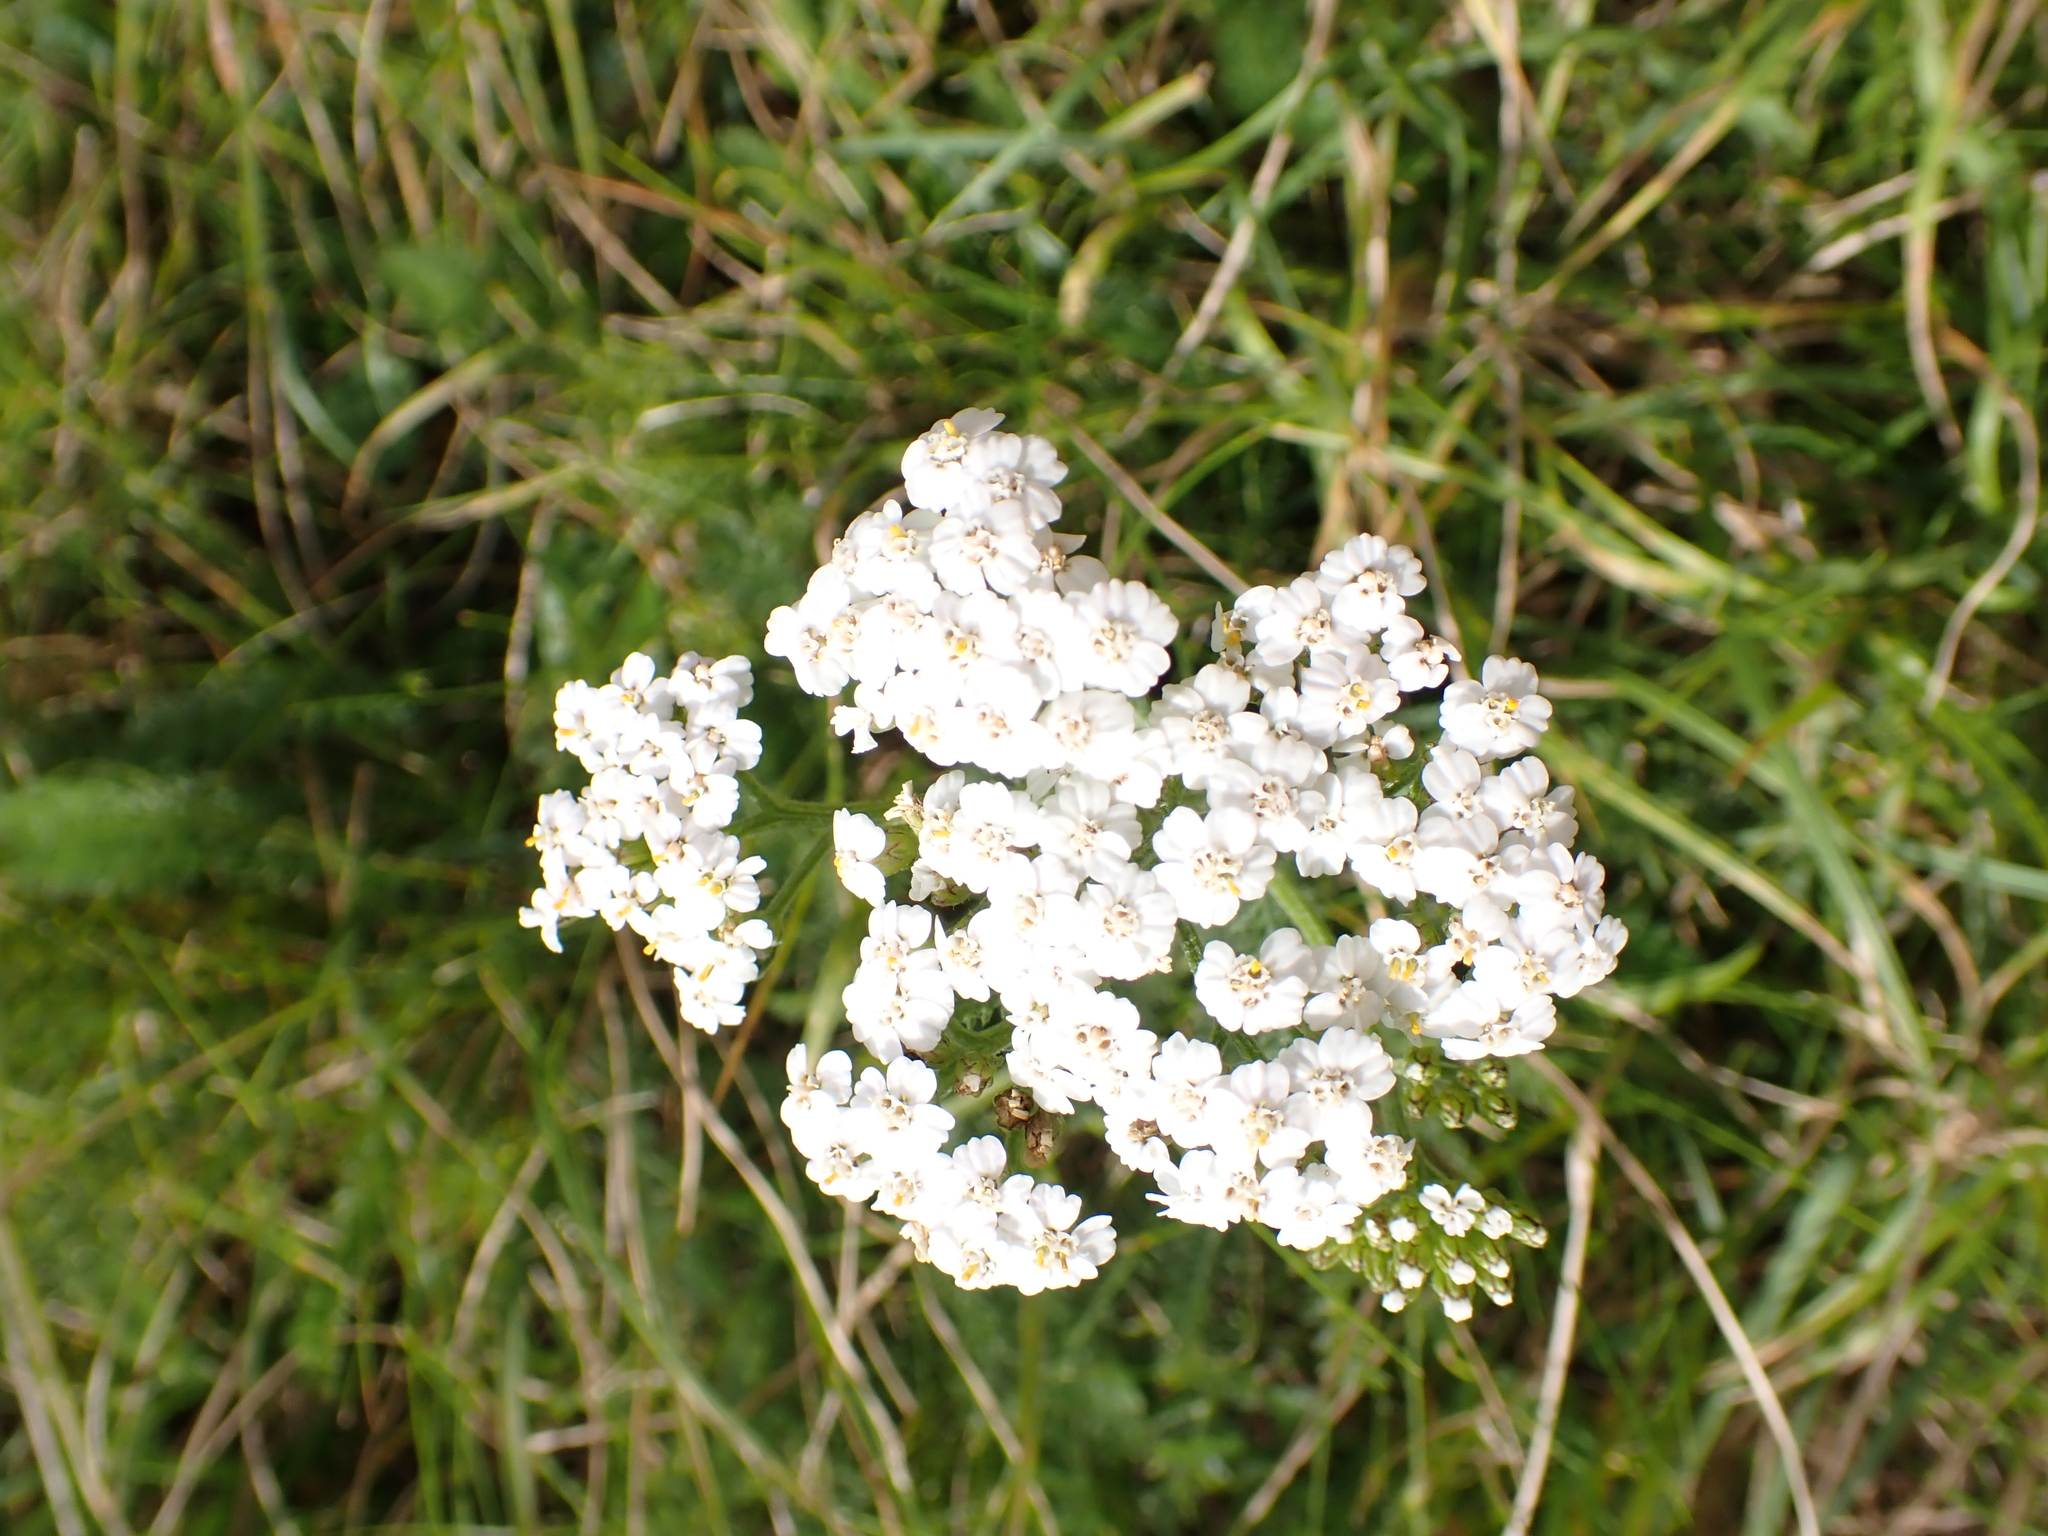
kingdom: Plantae
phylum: Tracheophyta
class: Magnoliopsida
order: Asterales
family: Asteraceae
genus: Achillea
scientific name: Achillea millefolium
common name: Yarrow
